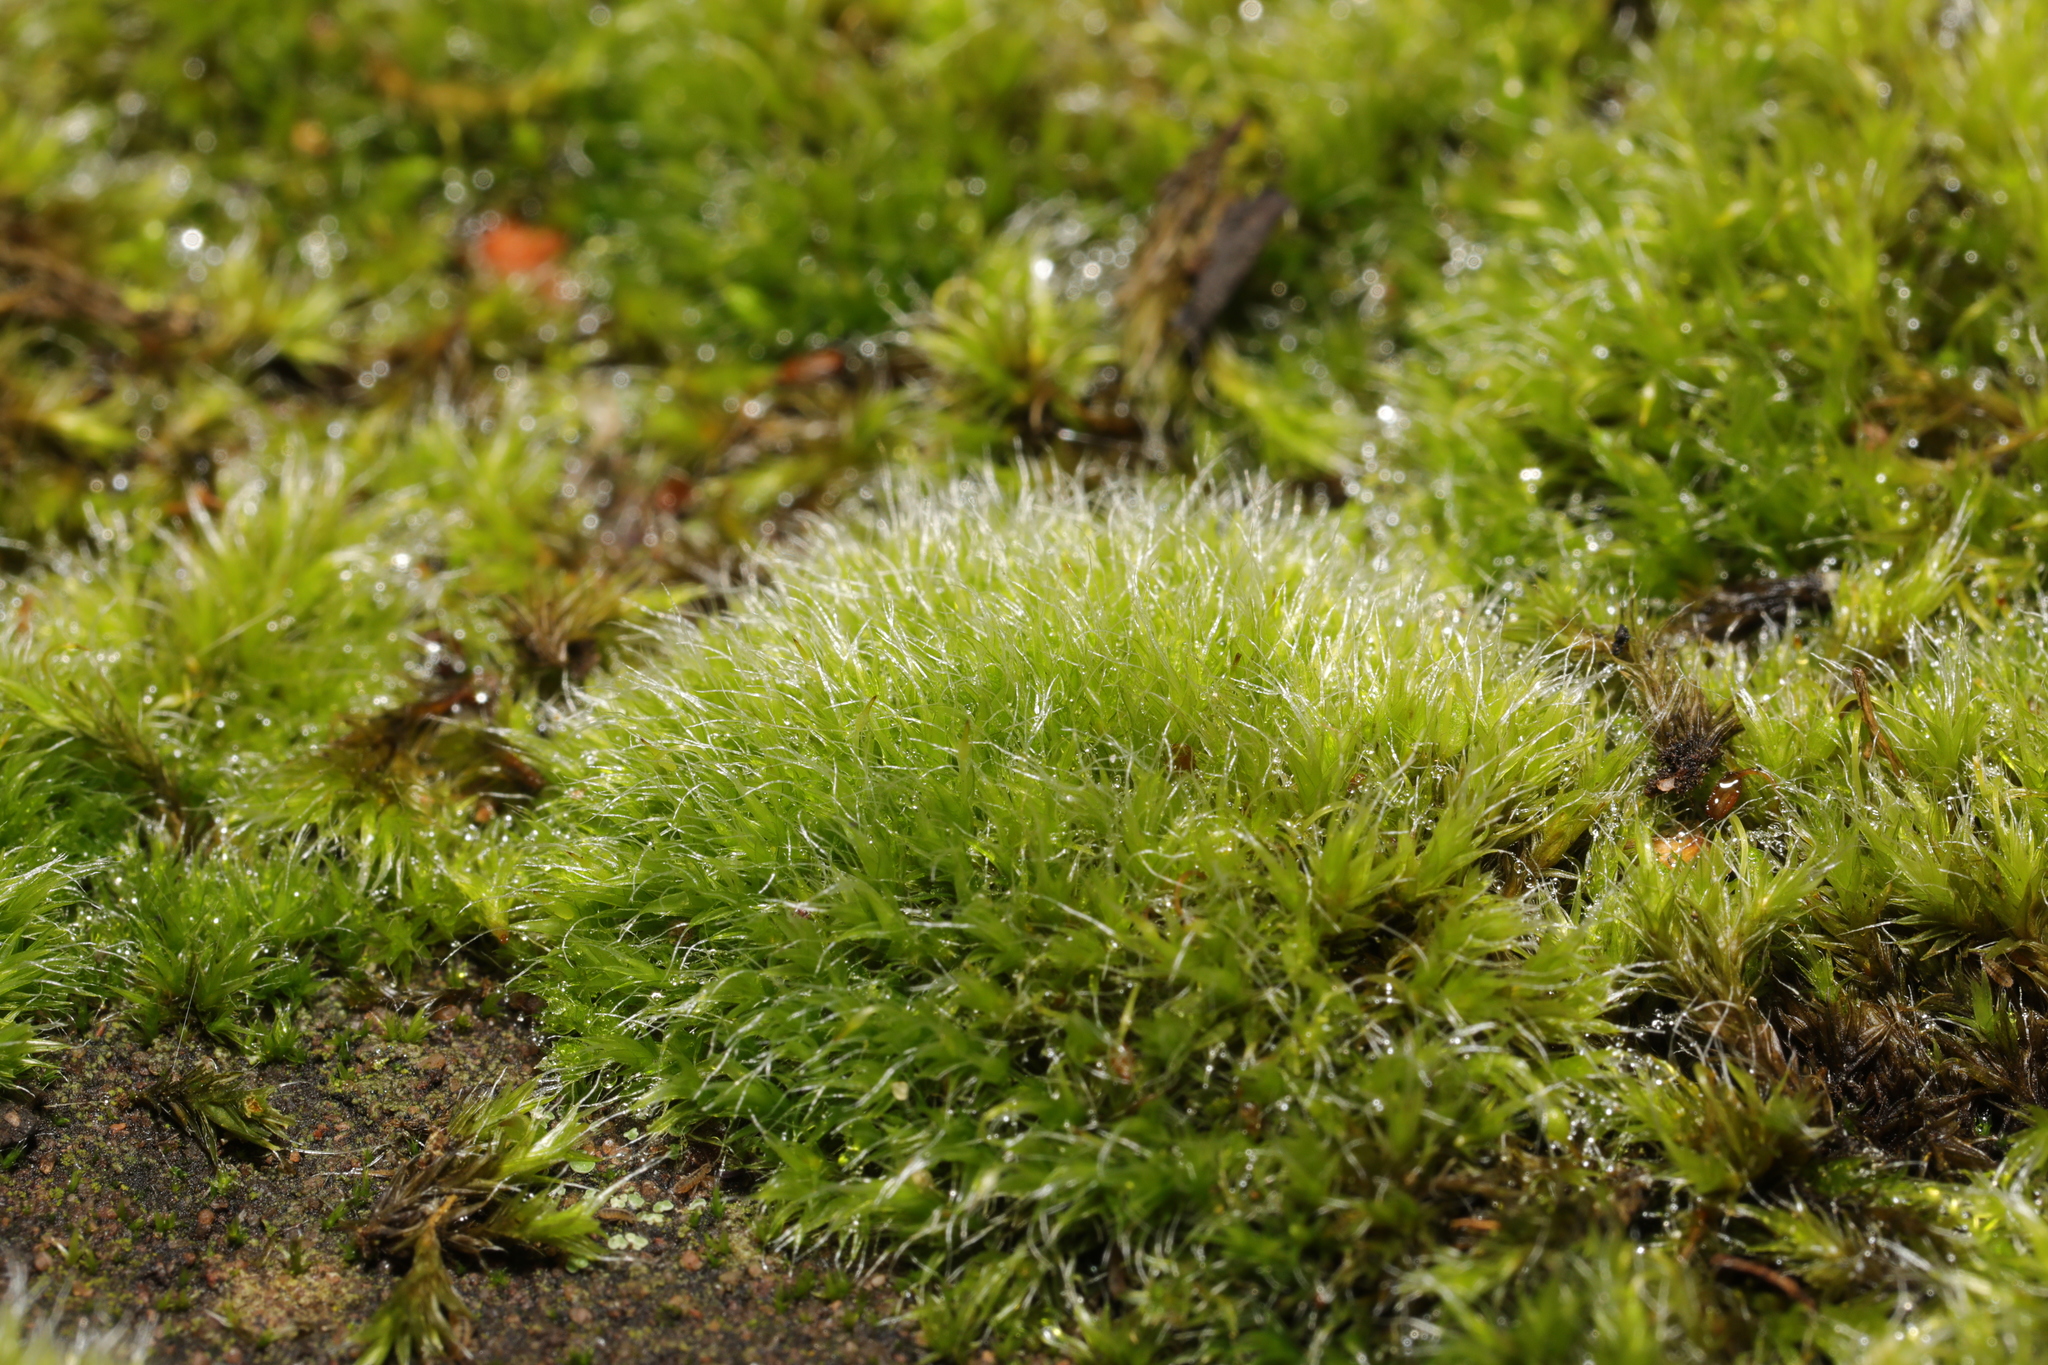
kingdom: Plantae
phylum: Bryophyta
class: Bryopsida
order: Grimmiales
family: Grimmiaceae
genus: Grimmia
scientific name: Grimmia pulvinata
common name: Grey-cushioned grimmia
